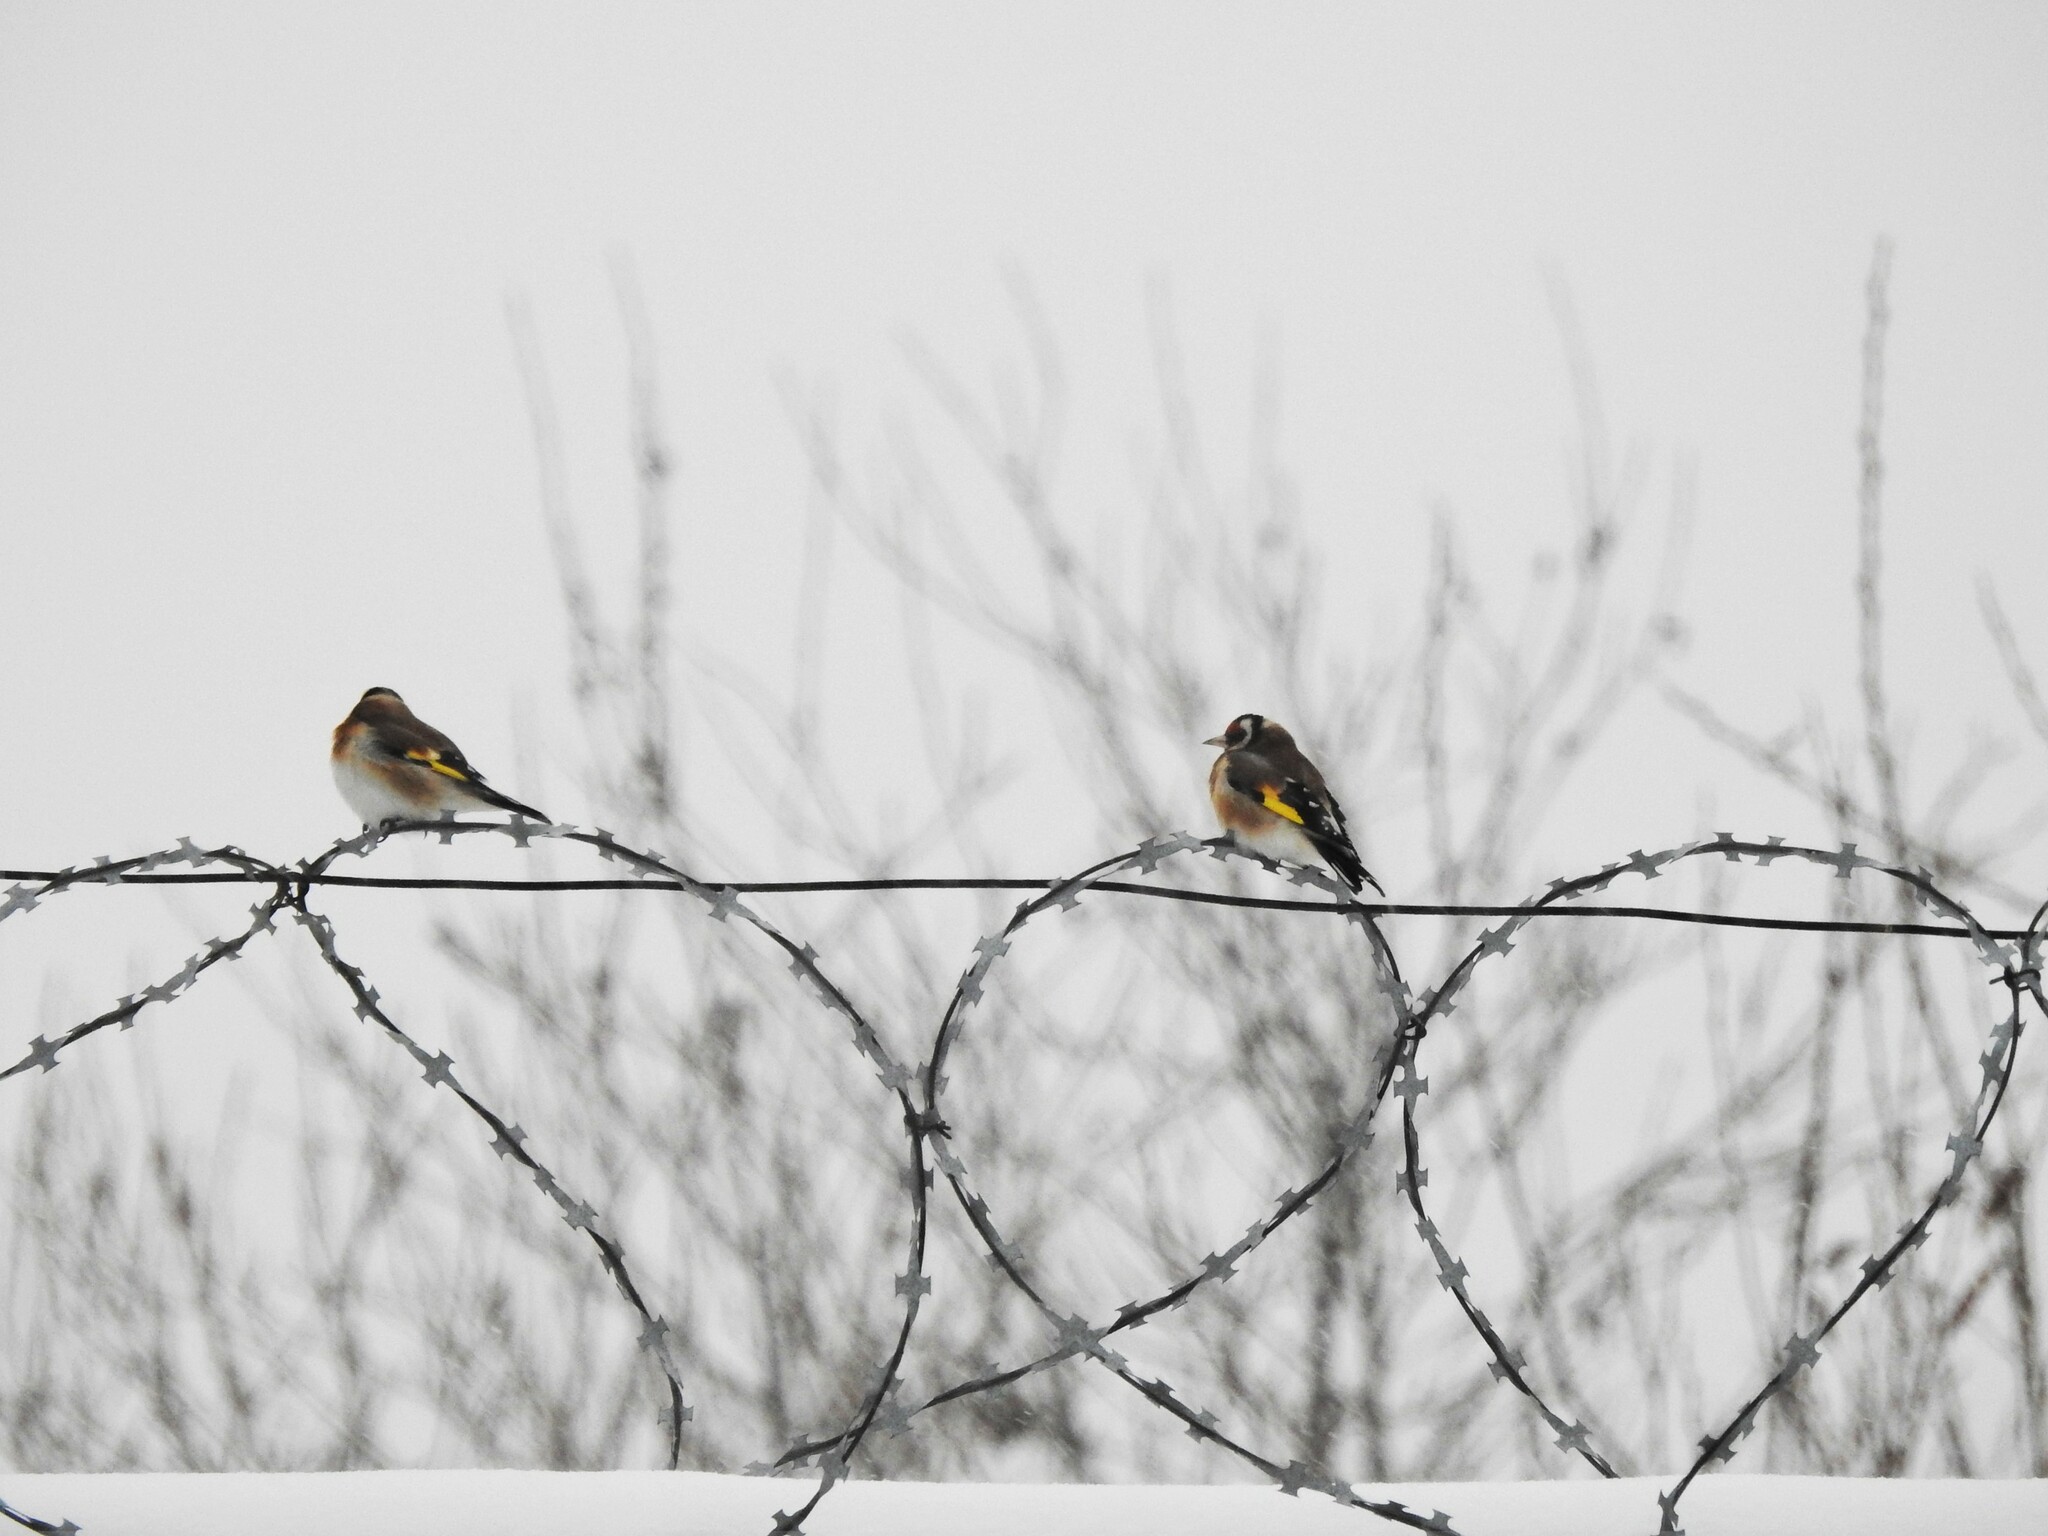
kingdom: Animalia
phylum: Chordata
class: Aves
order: Passeriformes
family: Fringillidae
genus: Carduelis
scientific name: Carduelis carduelis
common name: European goldfinch
